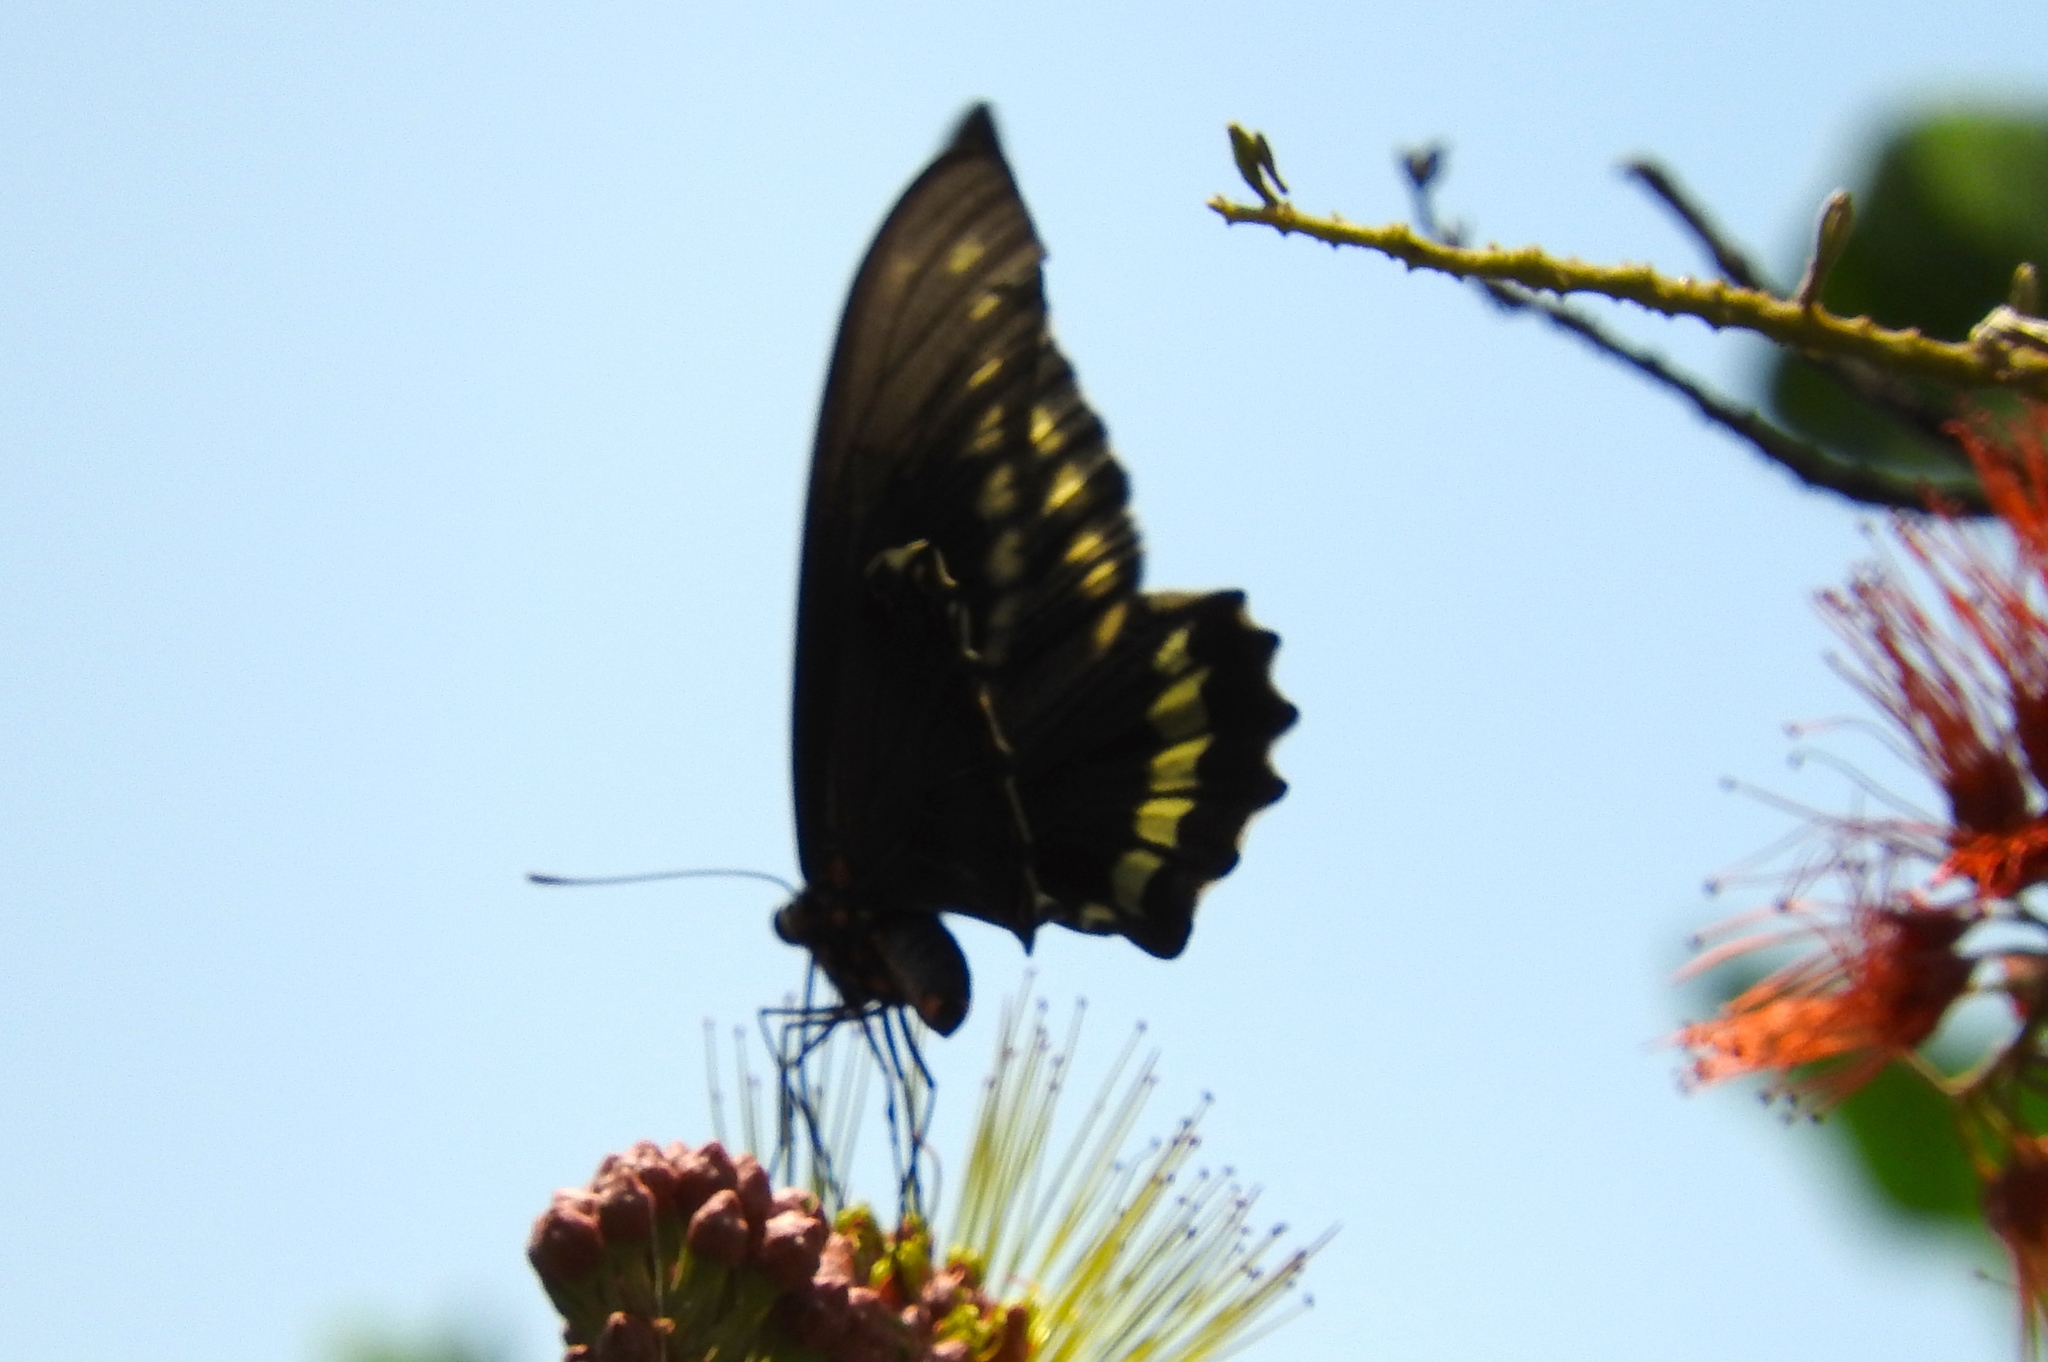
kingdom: Animalia
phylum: Arthropoda
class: Insecta
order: Lepidoptera
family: Papilionidae
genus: Battus
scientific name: Battus polydamas
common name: Polydamas swallowtail
